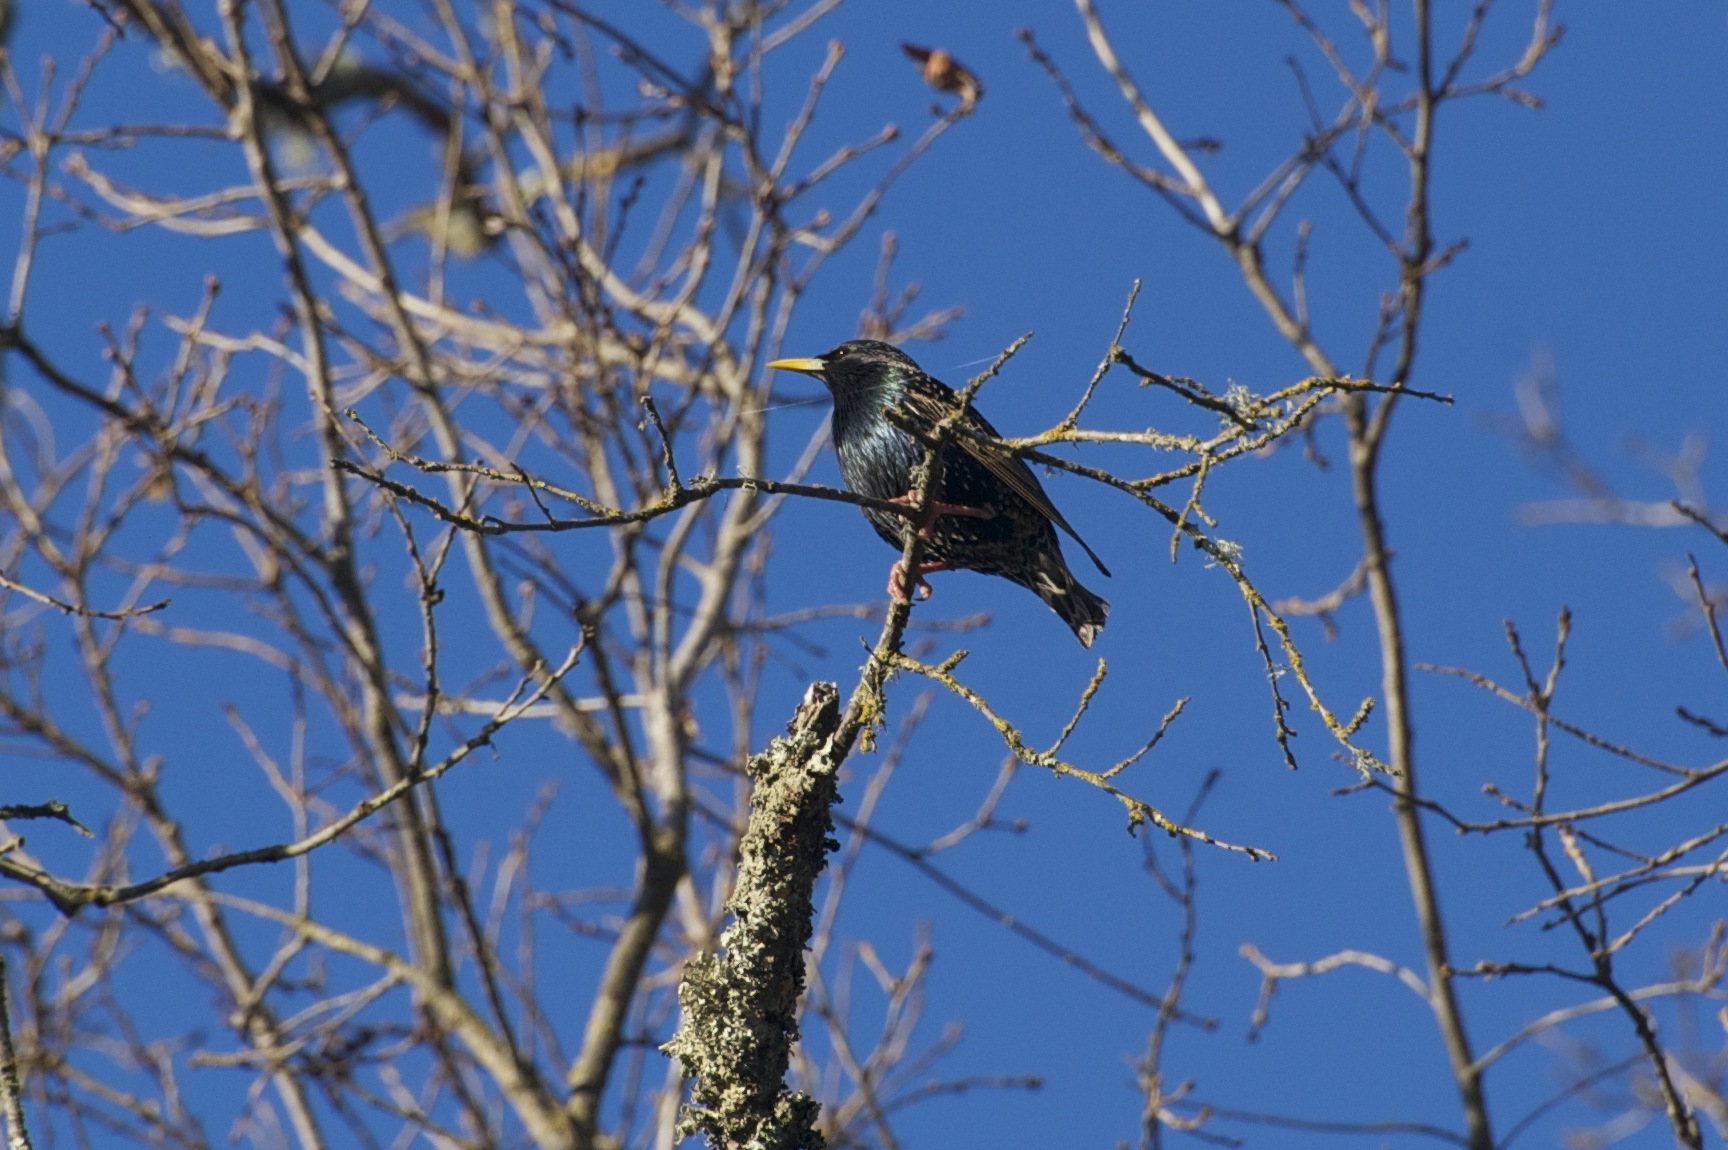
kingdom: Animalia
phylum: Chordata
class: Aves
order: Passeriformes
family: Sturnidae
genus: Sturnus
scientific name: Sturnus vulgaris
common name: Common starling
